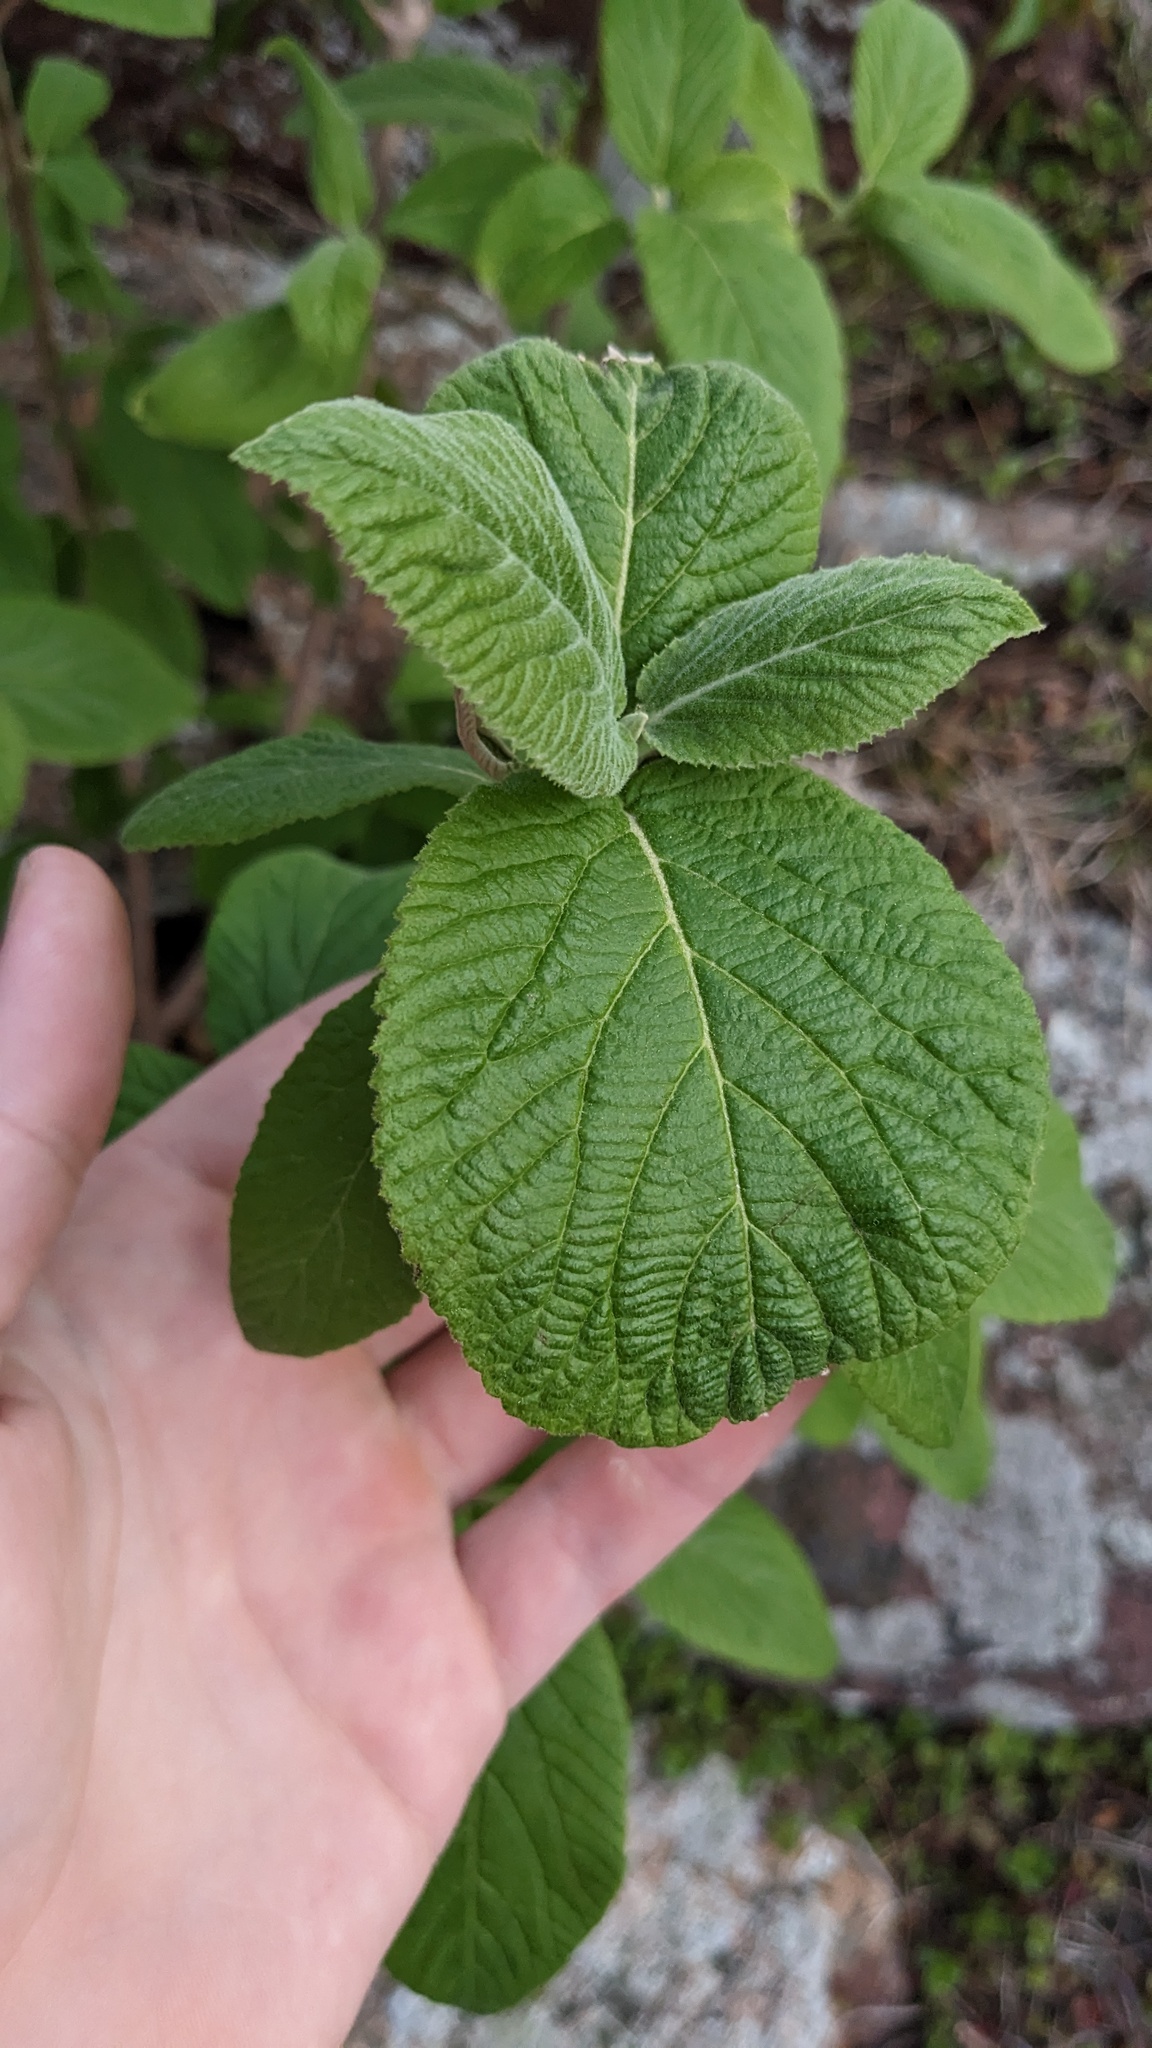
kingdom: Plantae
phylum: Tracheophyta
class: Magnoliopsida
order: Dipsacales
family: Viburnaceae
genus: Viburnum
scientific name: Viburnum lantana
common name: Wayfaring tree
